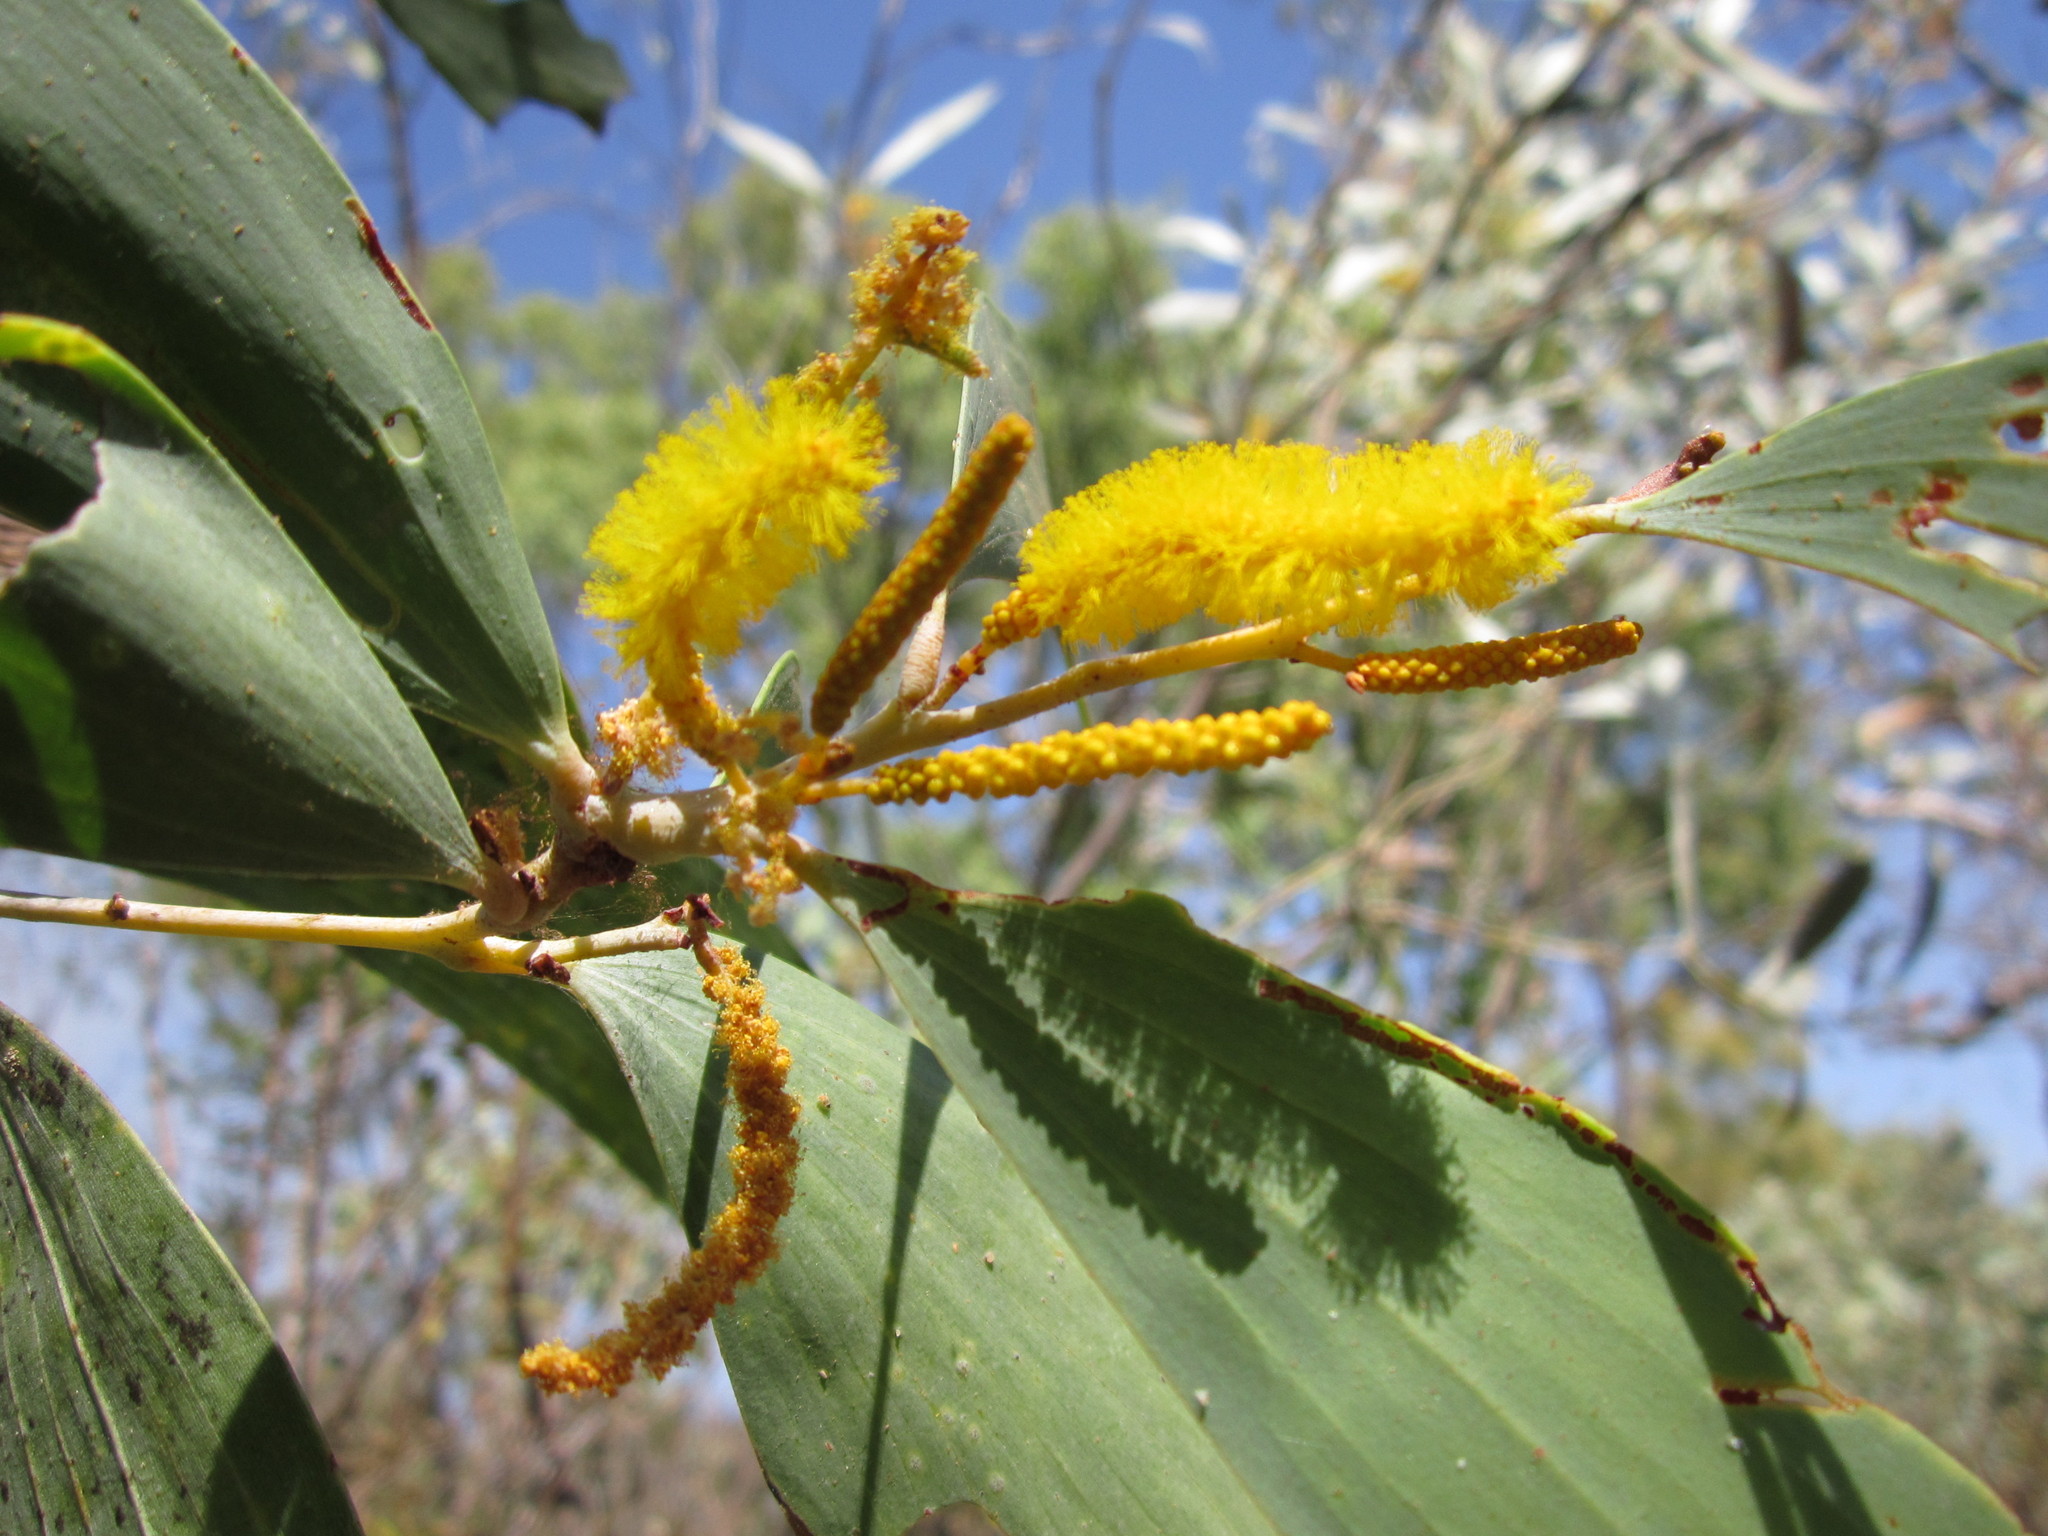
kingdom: Plantae
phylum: Tracheophyta
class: Magnoliopsida
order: Fabales
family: Fabaceae
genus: Acacia
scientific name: Acacia difficilis
